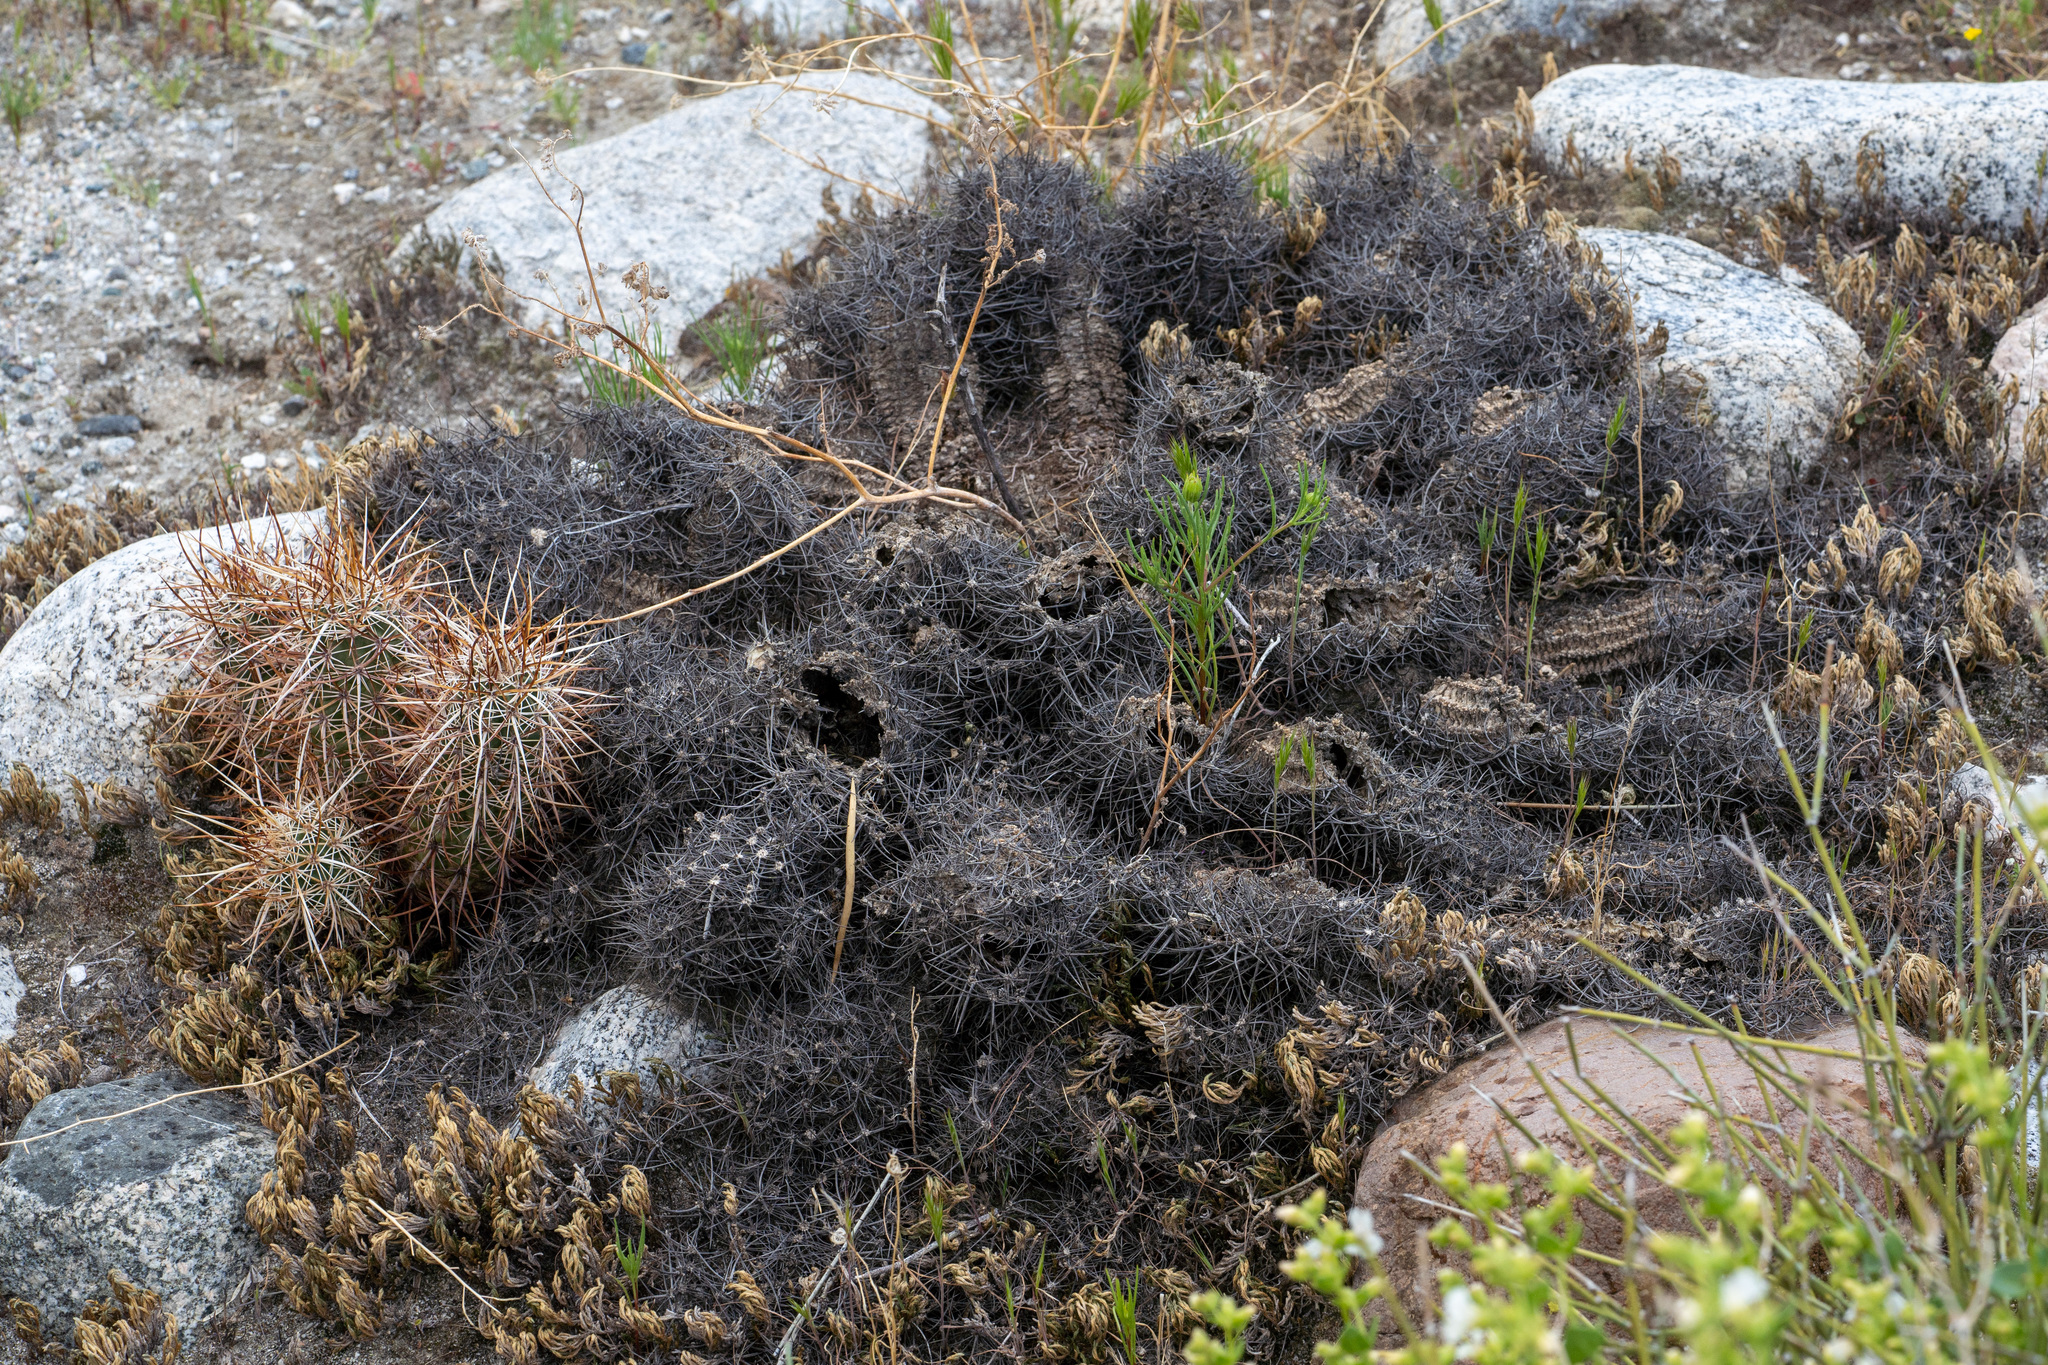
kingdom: Plantae
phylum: Tracheophyta
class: Magnoliopsida
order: Caryophyllales
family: Cactaceae
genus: Echinocereus
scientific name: Echinocereus engelmannii
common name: Engelmann's hedgehog cactus
